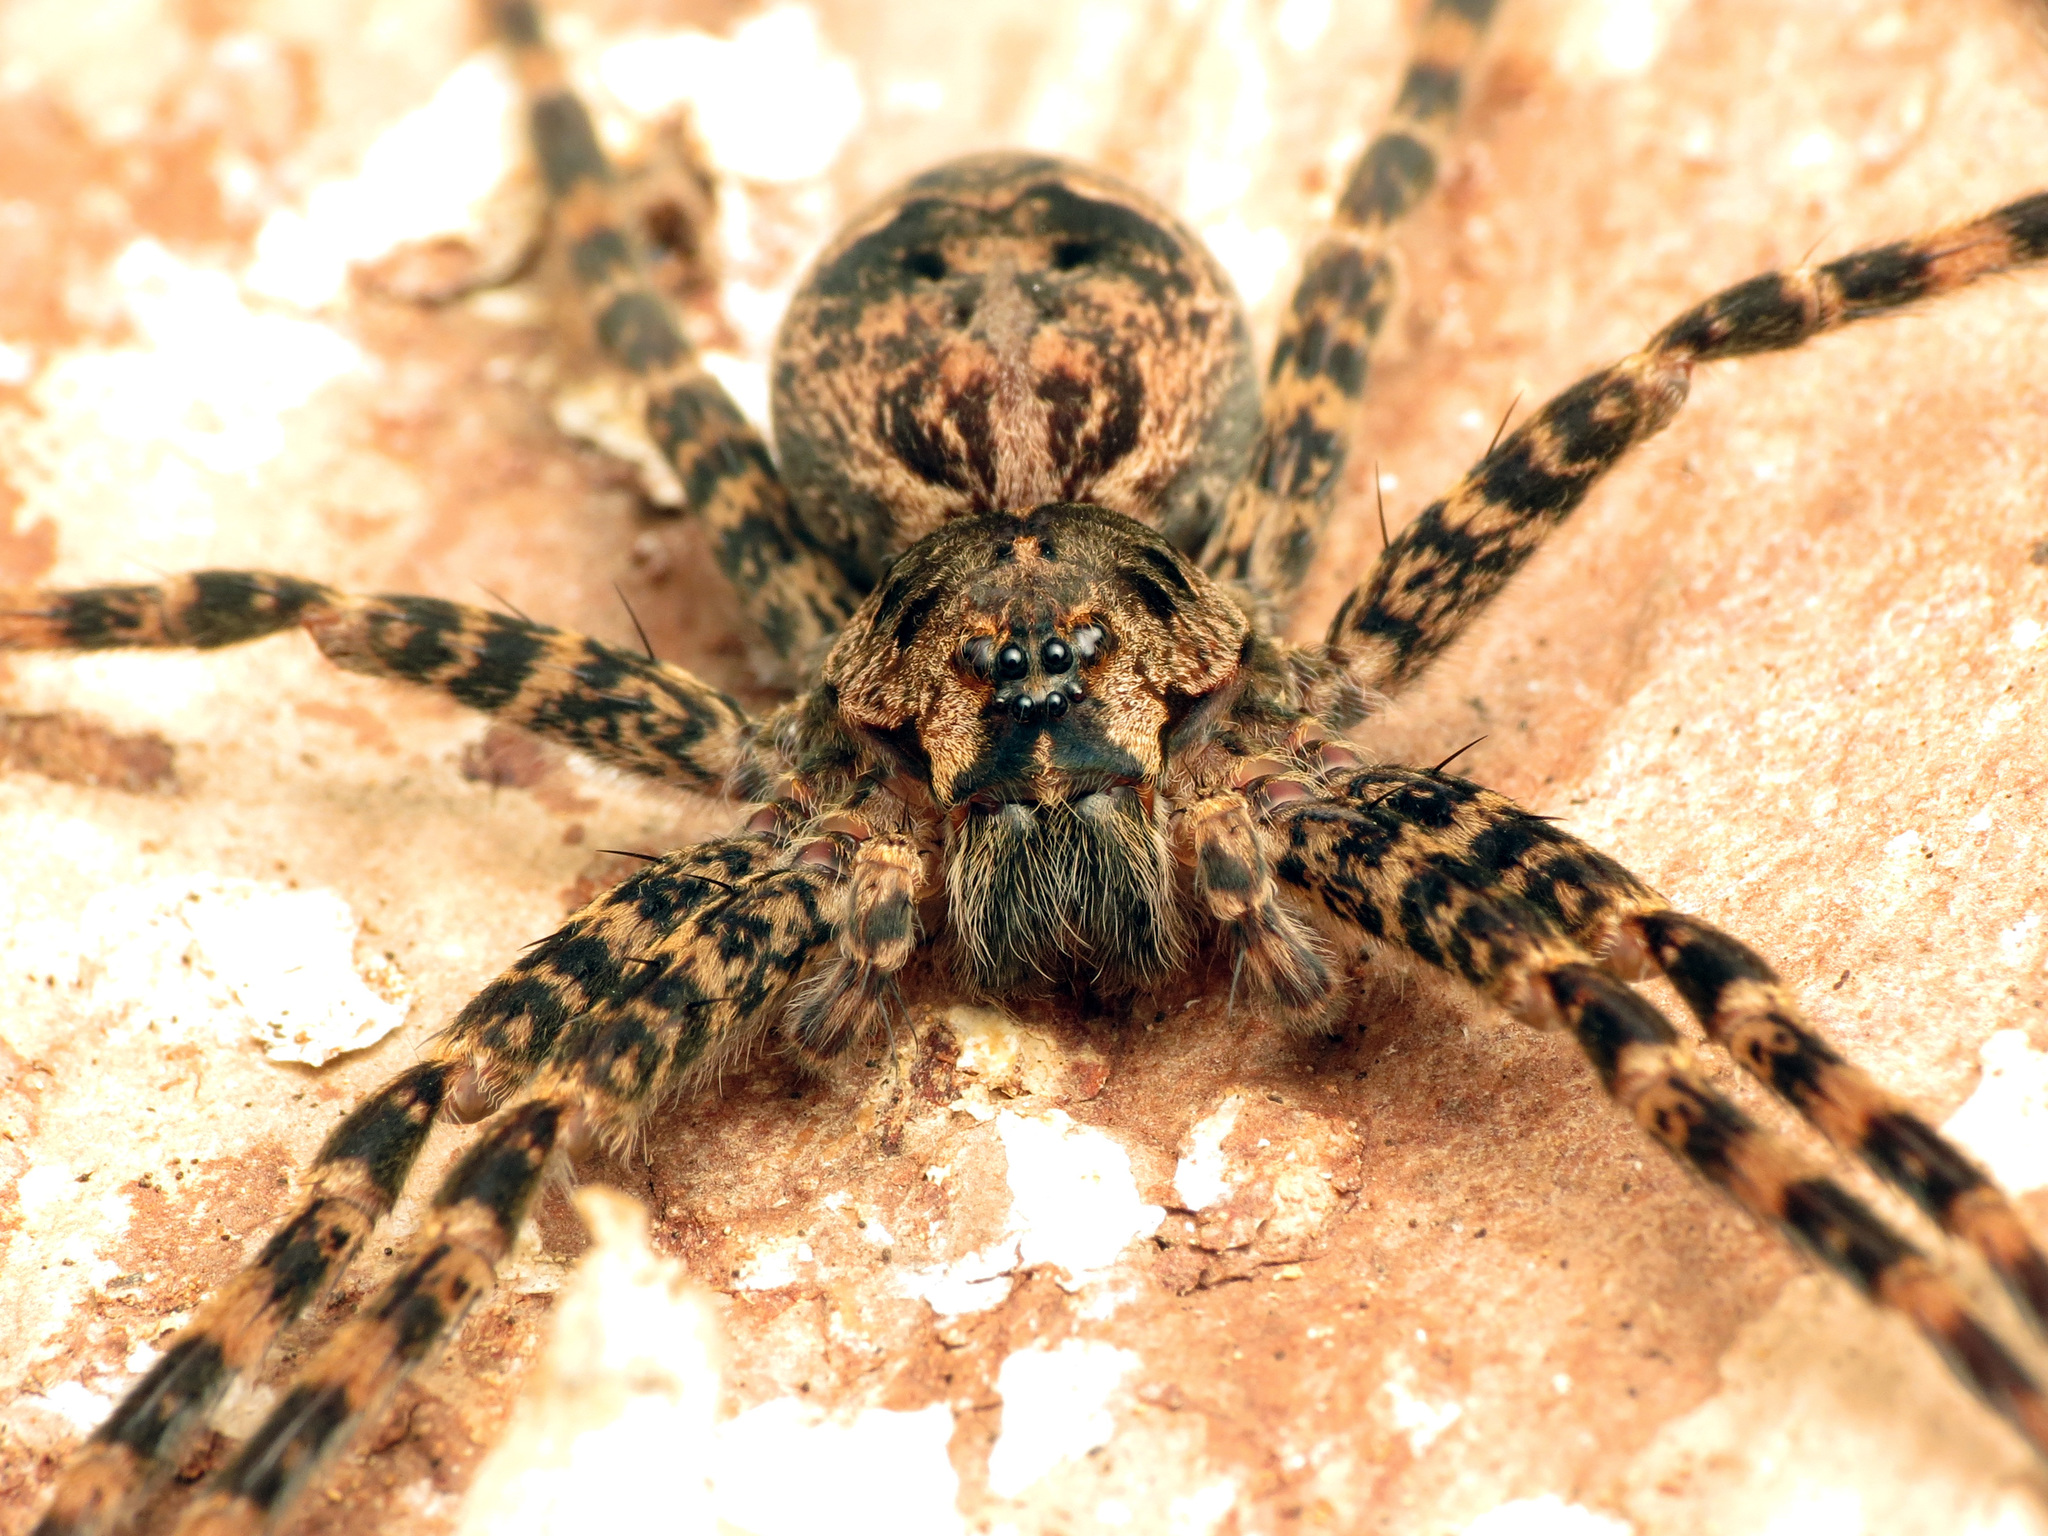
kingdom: Animalia
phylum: Arthropoda
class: Arachnida
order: Araneae
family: Pisauridae
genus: Dolomedes
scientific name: Dolomedes tenebrosus
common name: Dark fishing spider
